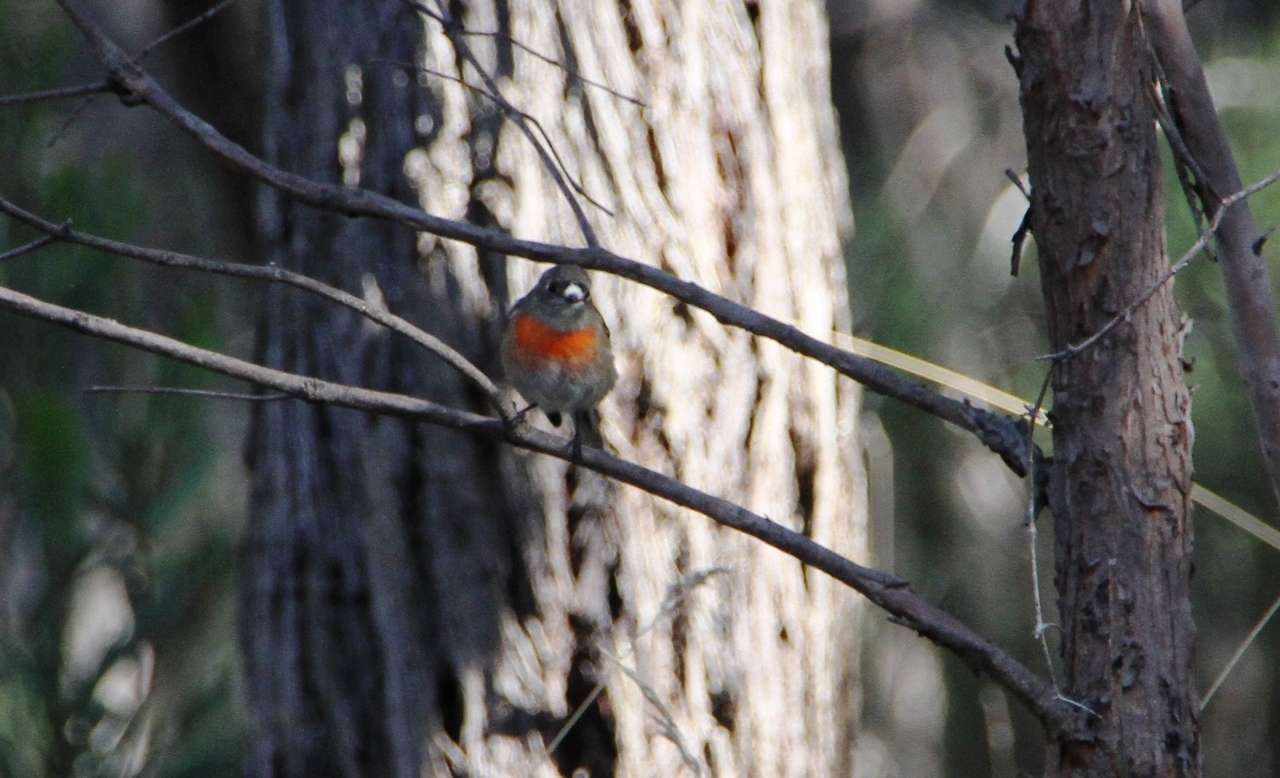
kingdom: Animalia
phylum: Chordata
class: Aves
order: Passeriformes
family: Petroicidae
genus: Petroica
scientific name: Petroica boodang
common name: Scarlet robin
